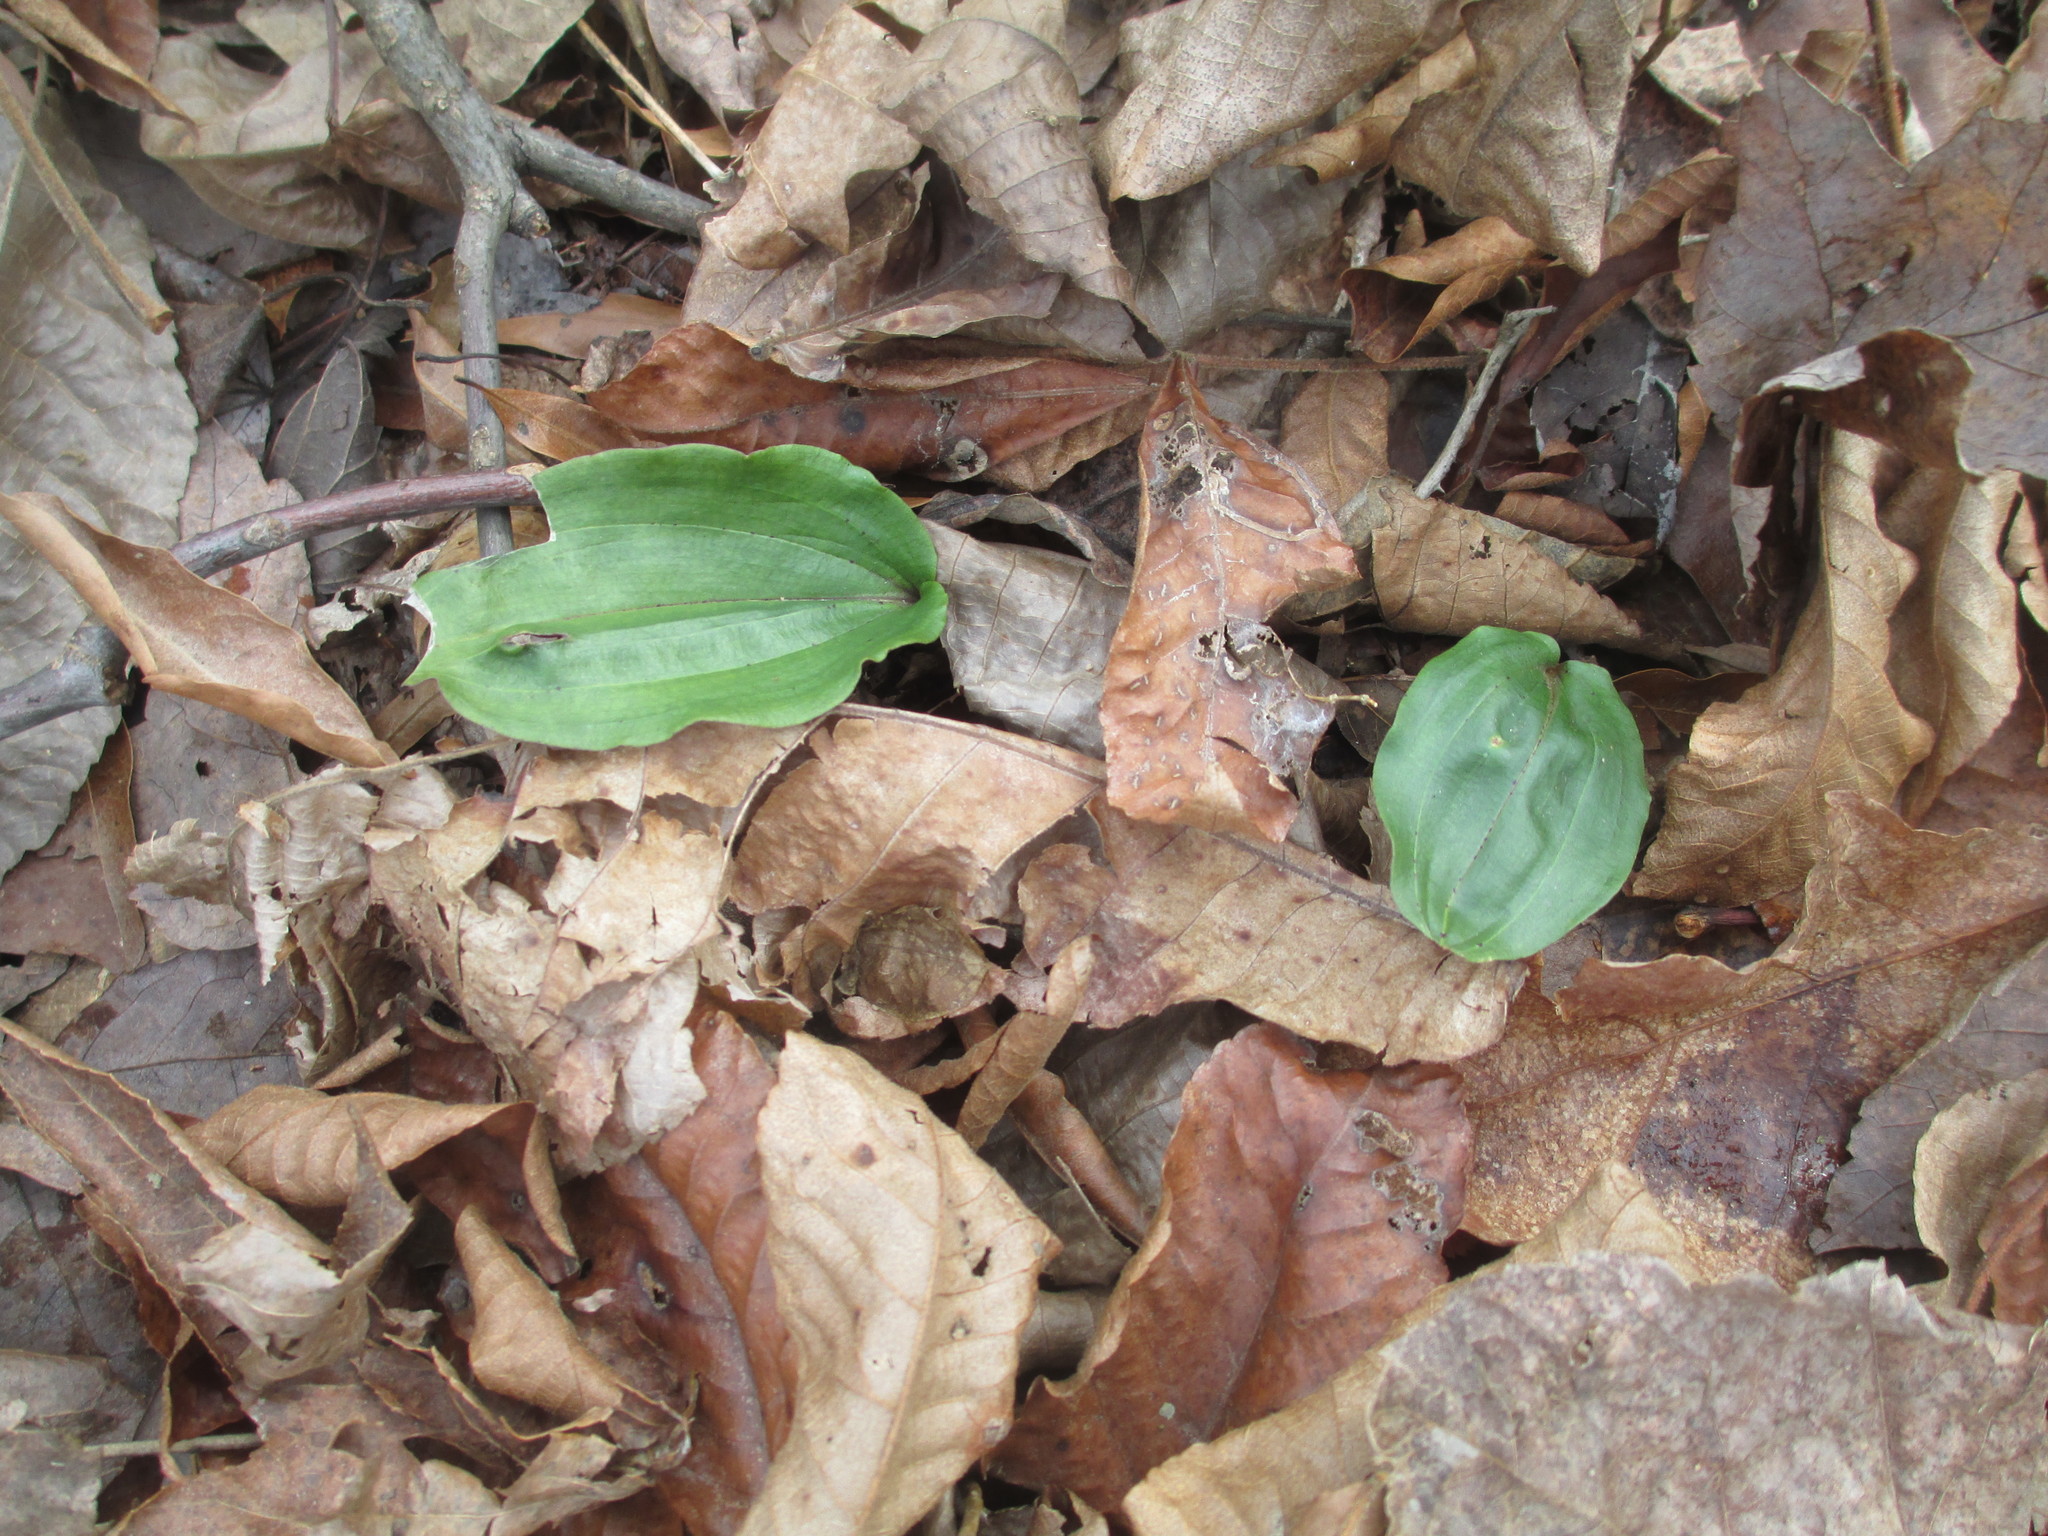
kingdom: Plantae
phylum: Tracheophyta
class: Liliopsida
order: Asparagales
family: Orchidaceae
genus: Tipularia
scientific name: Tipularia discolor
